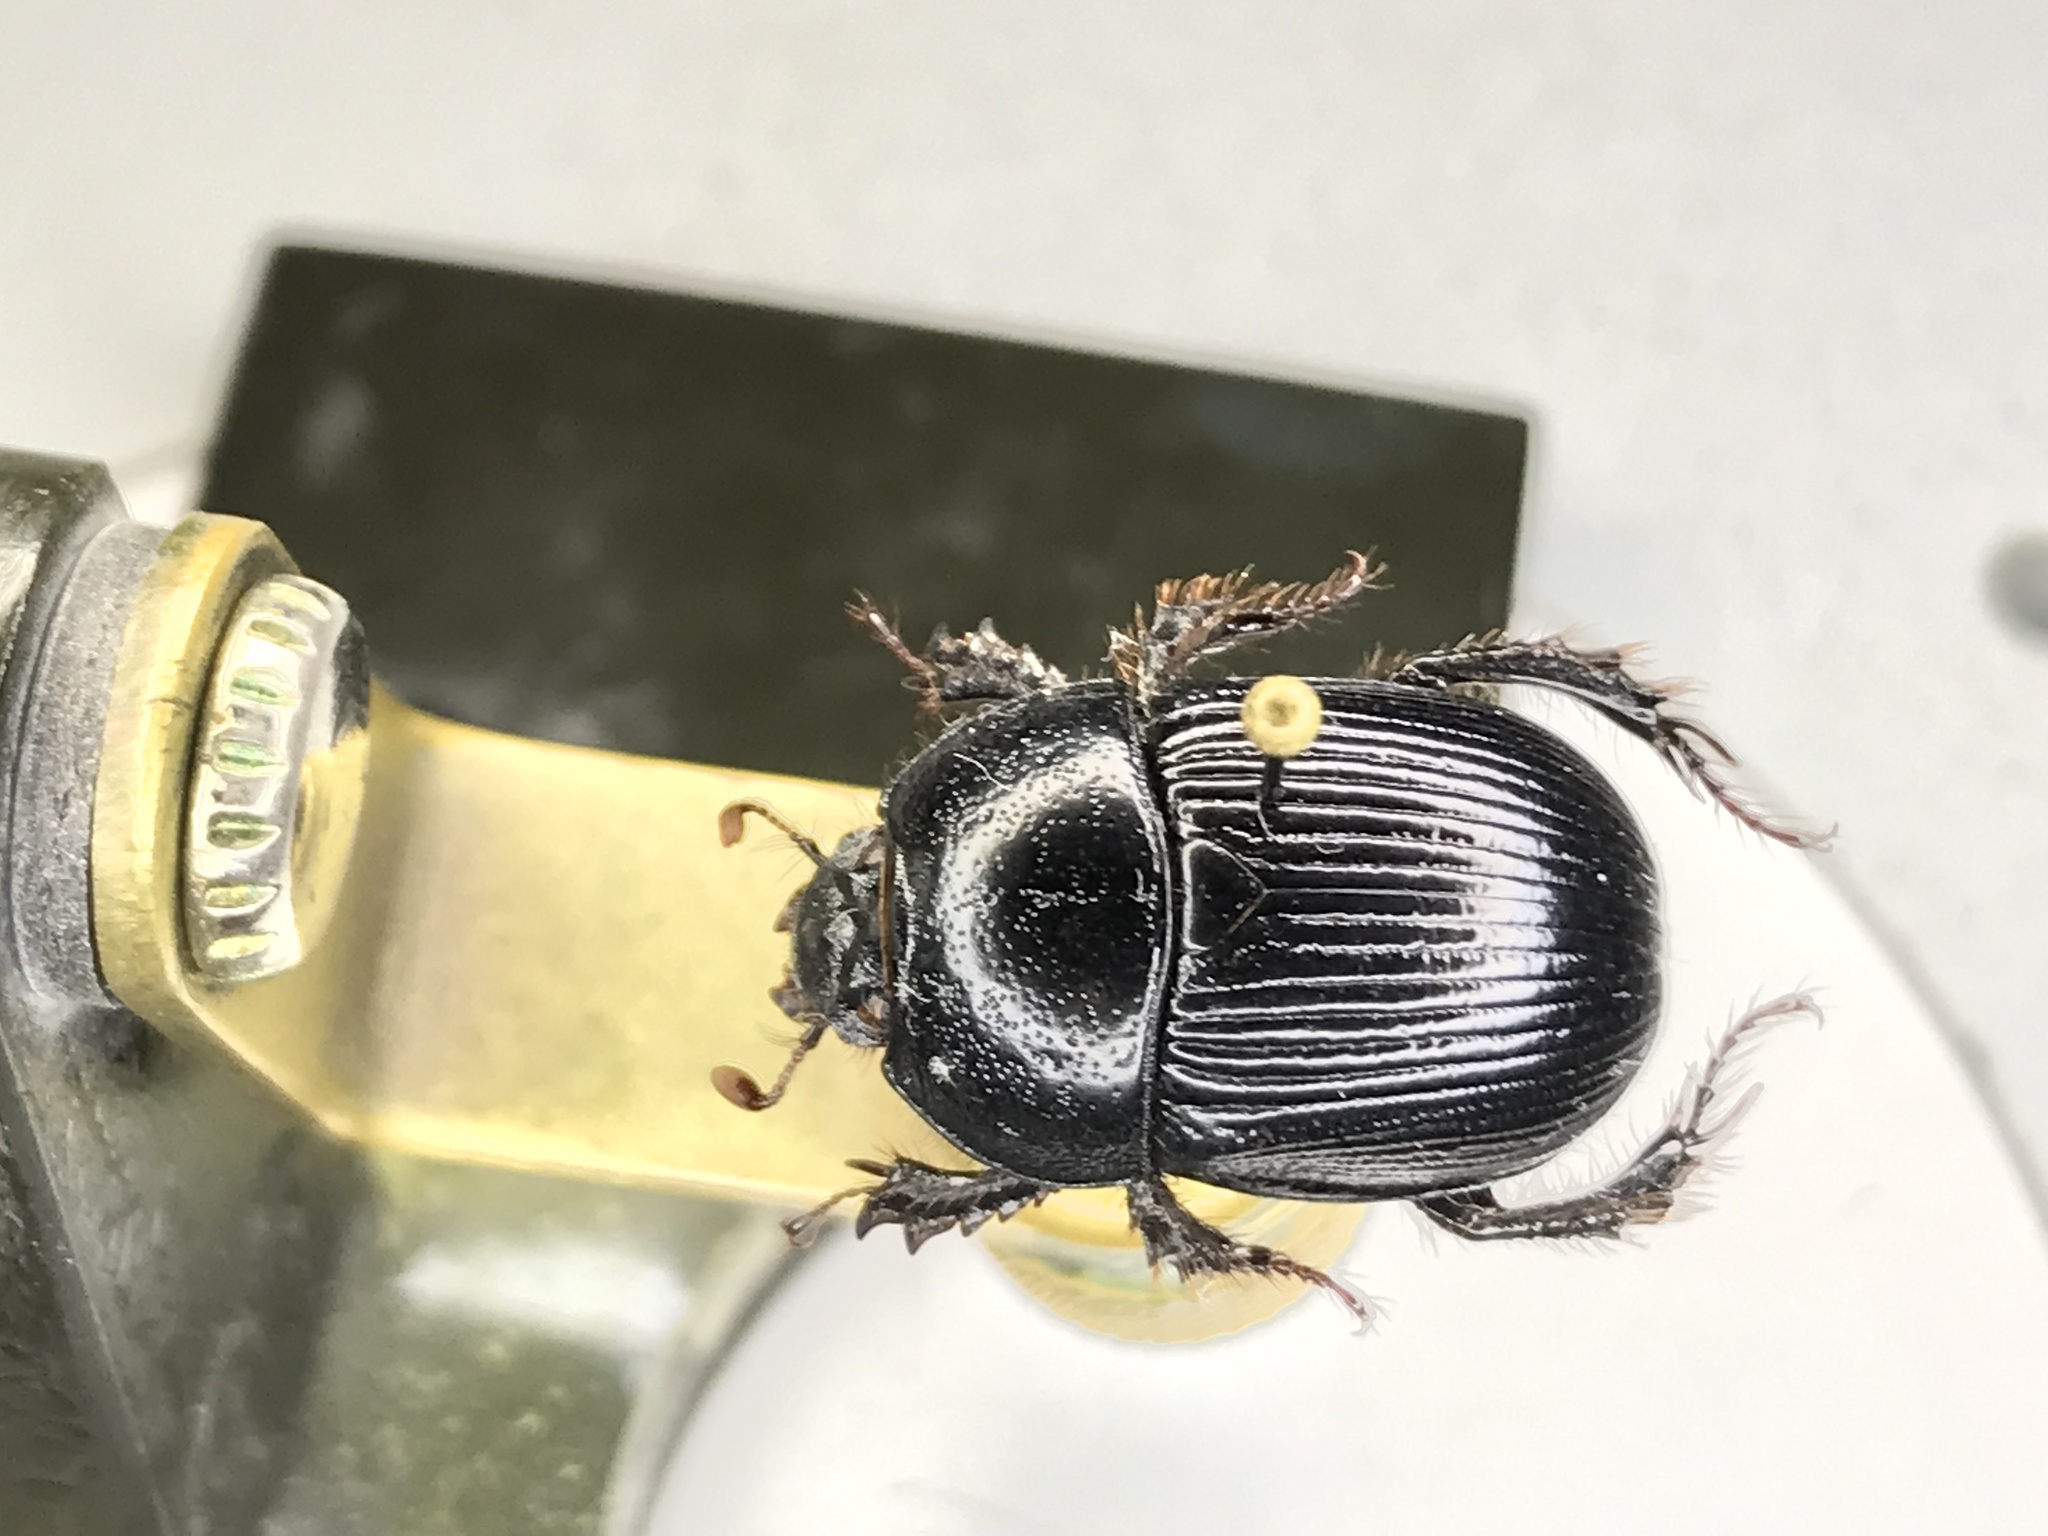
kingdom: Animalia
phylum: Arthropoda
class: Insecta
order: Coleoptera
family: Geotrupidae
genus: Anoplotrupes
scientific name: Anoplotrupes hornii
